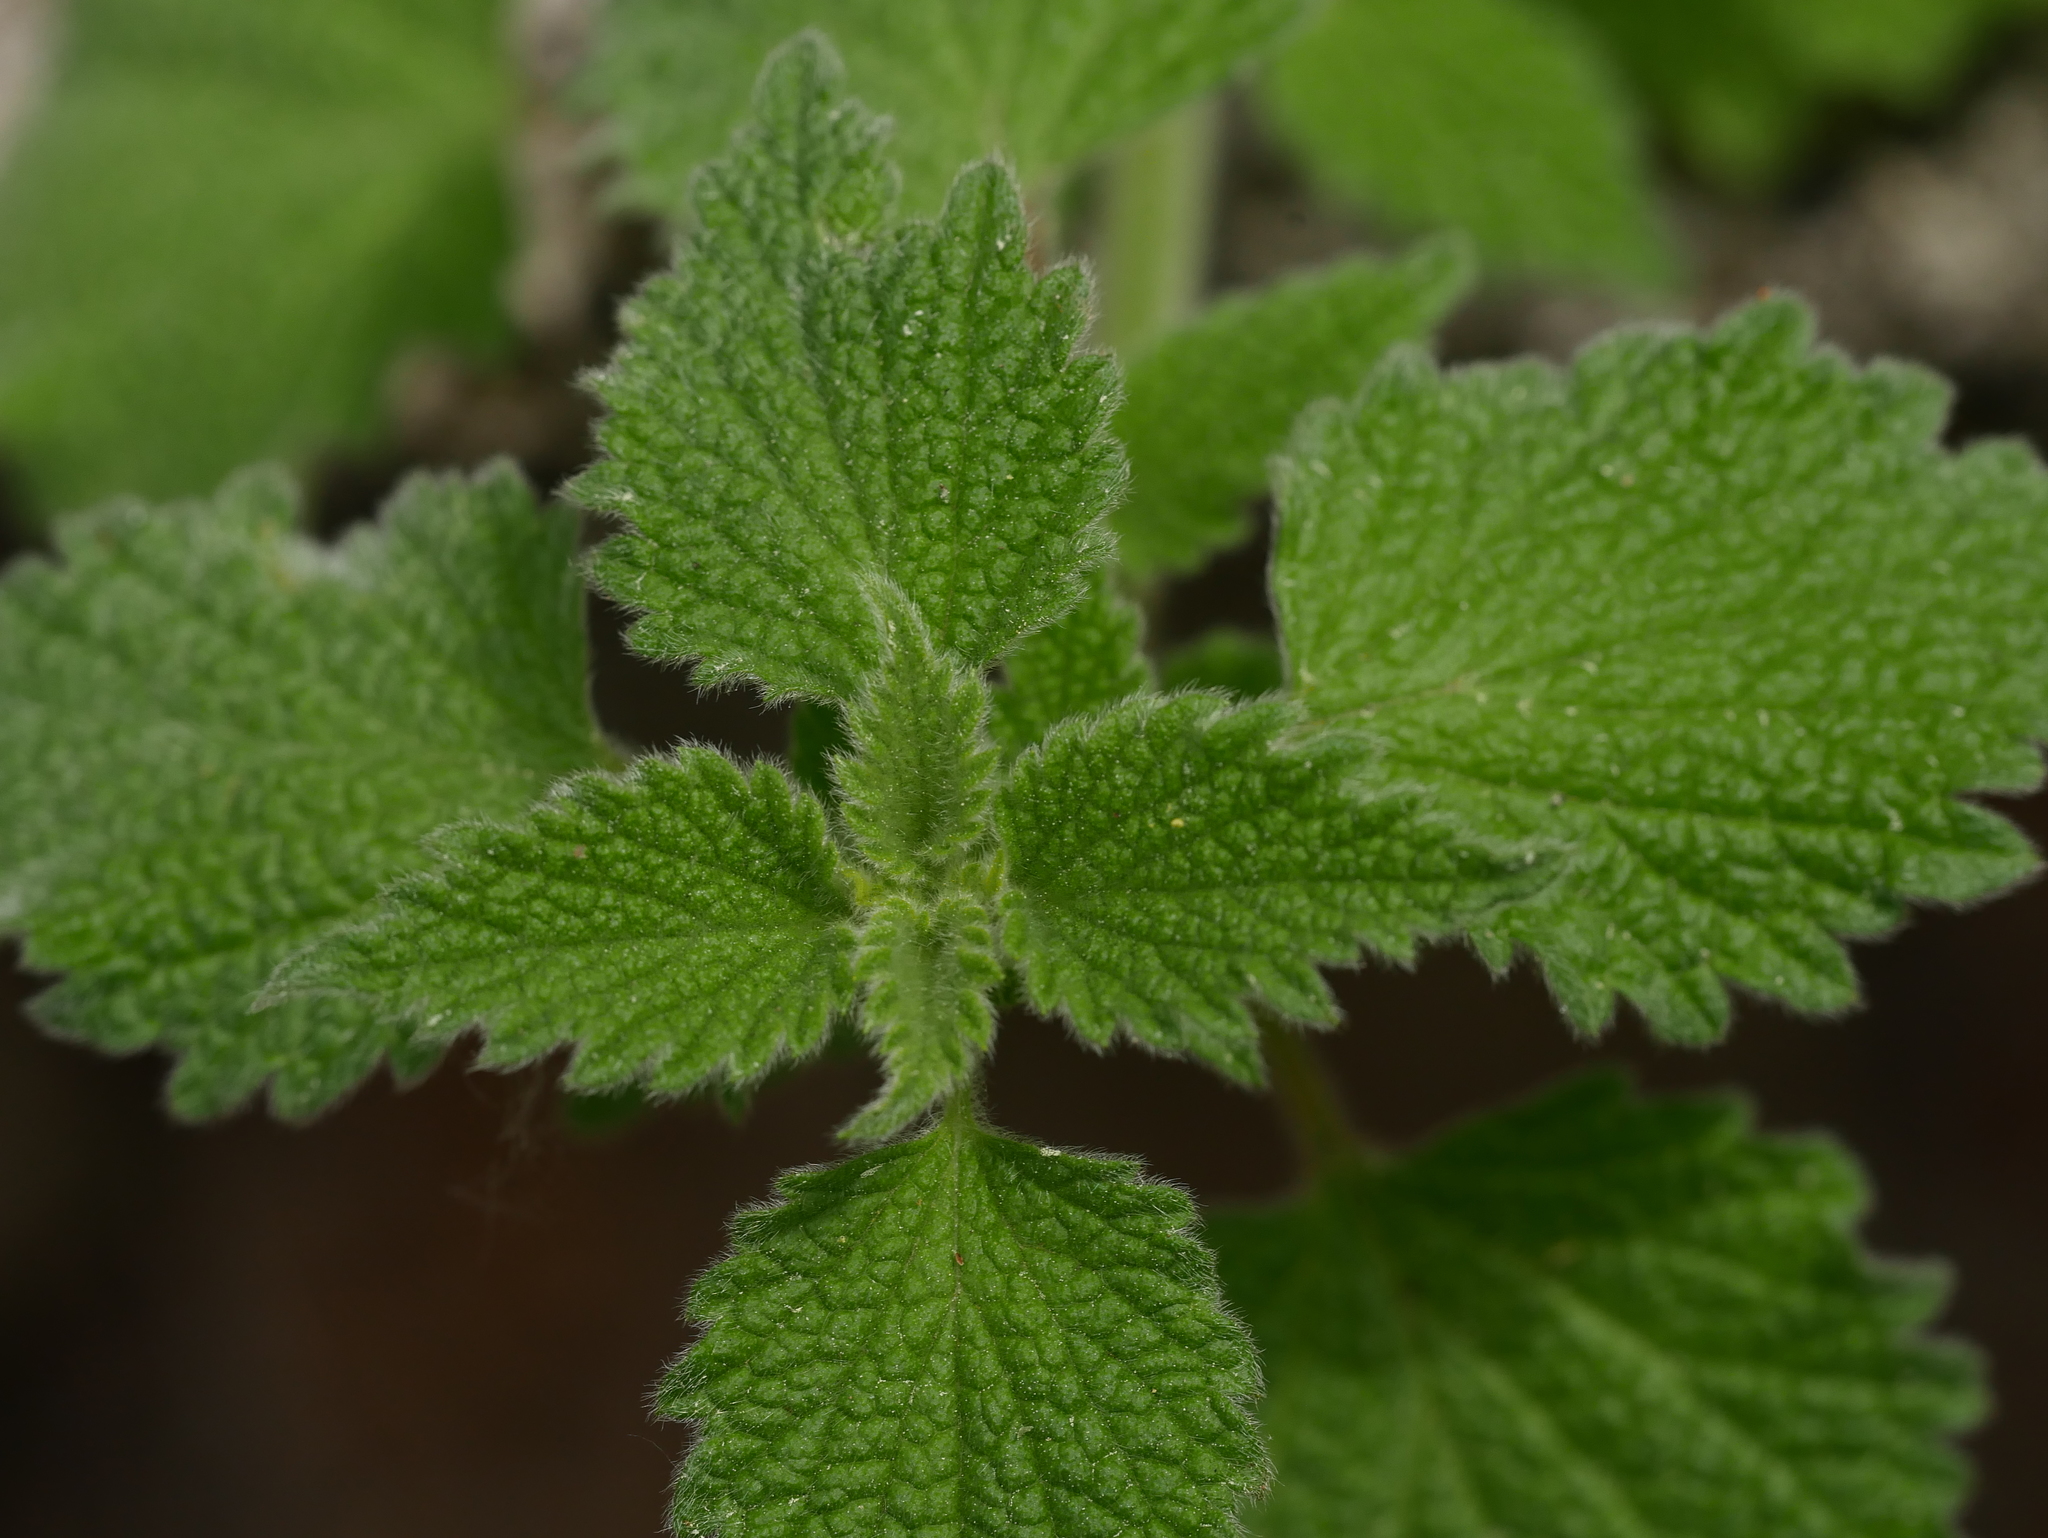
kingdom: Plantae
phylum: Tracheophyta
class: Magnoliopsida
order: Lamiales
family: Lamiaceae
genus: Ballota
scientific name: Ballota nigra
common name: Black horehound
